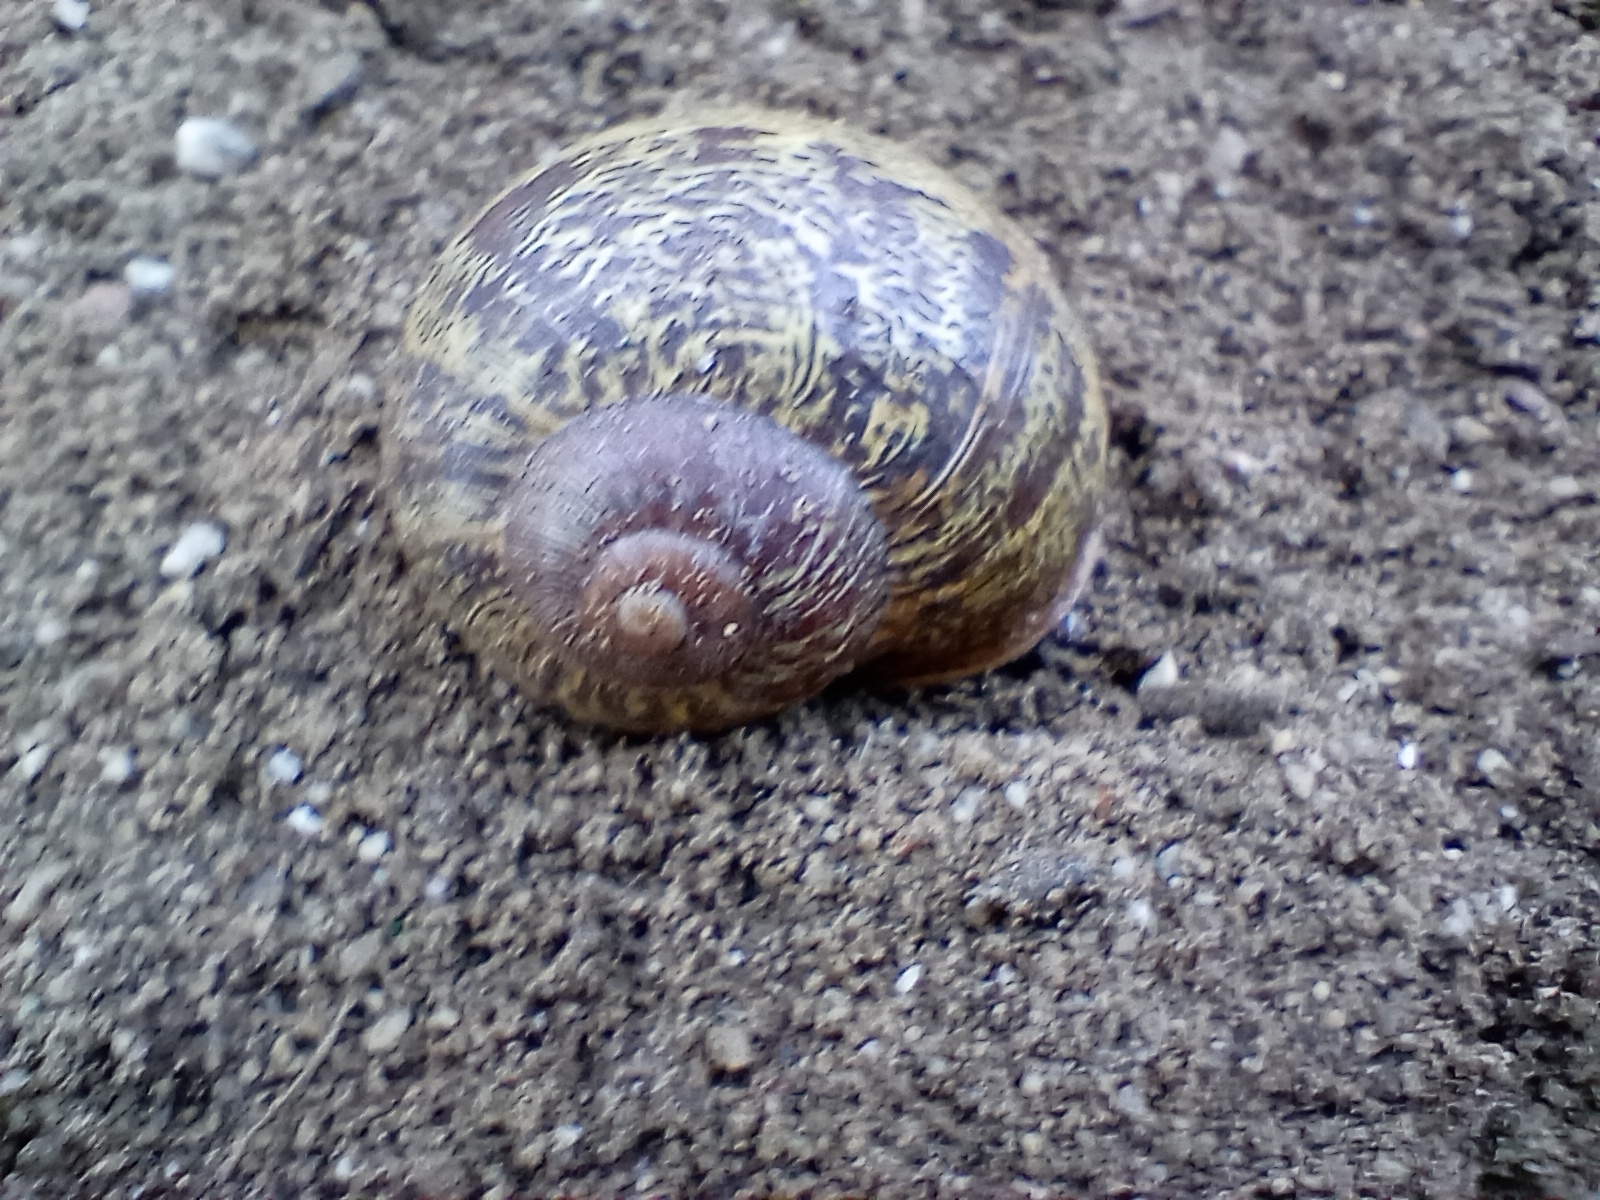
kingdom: Animalia
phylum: Mollusca
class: Gastropoda
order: Stylommatophora
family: Helicidae
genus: Cornu
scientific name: Cornu aspersum
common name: Brown garden snail
